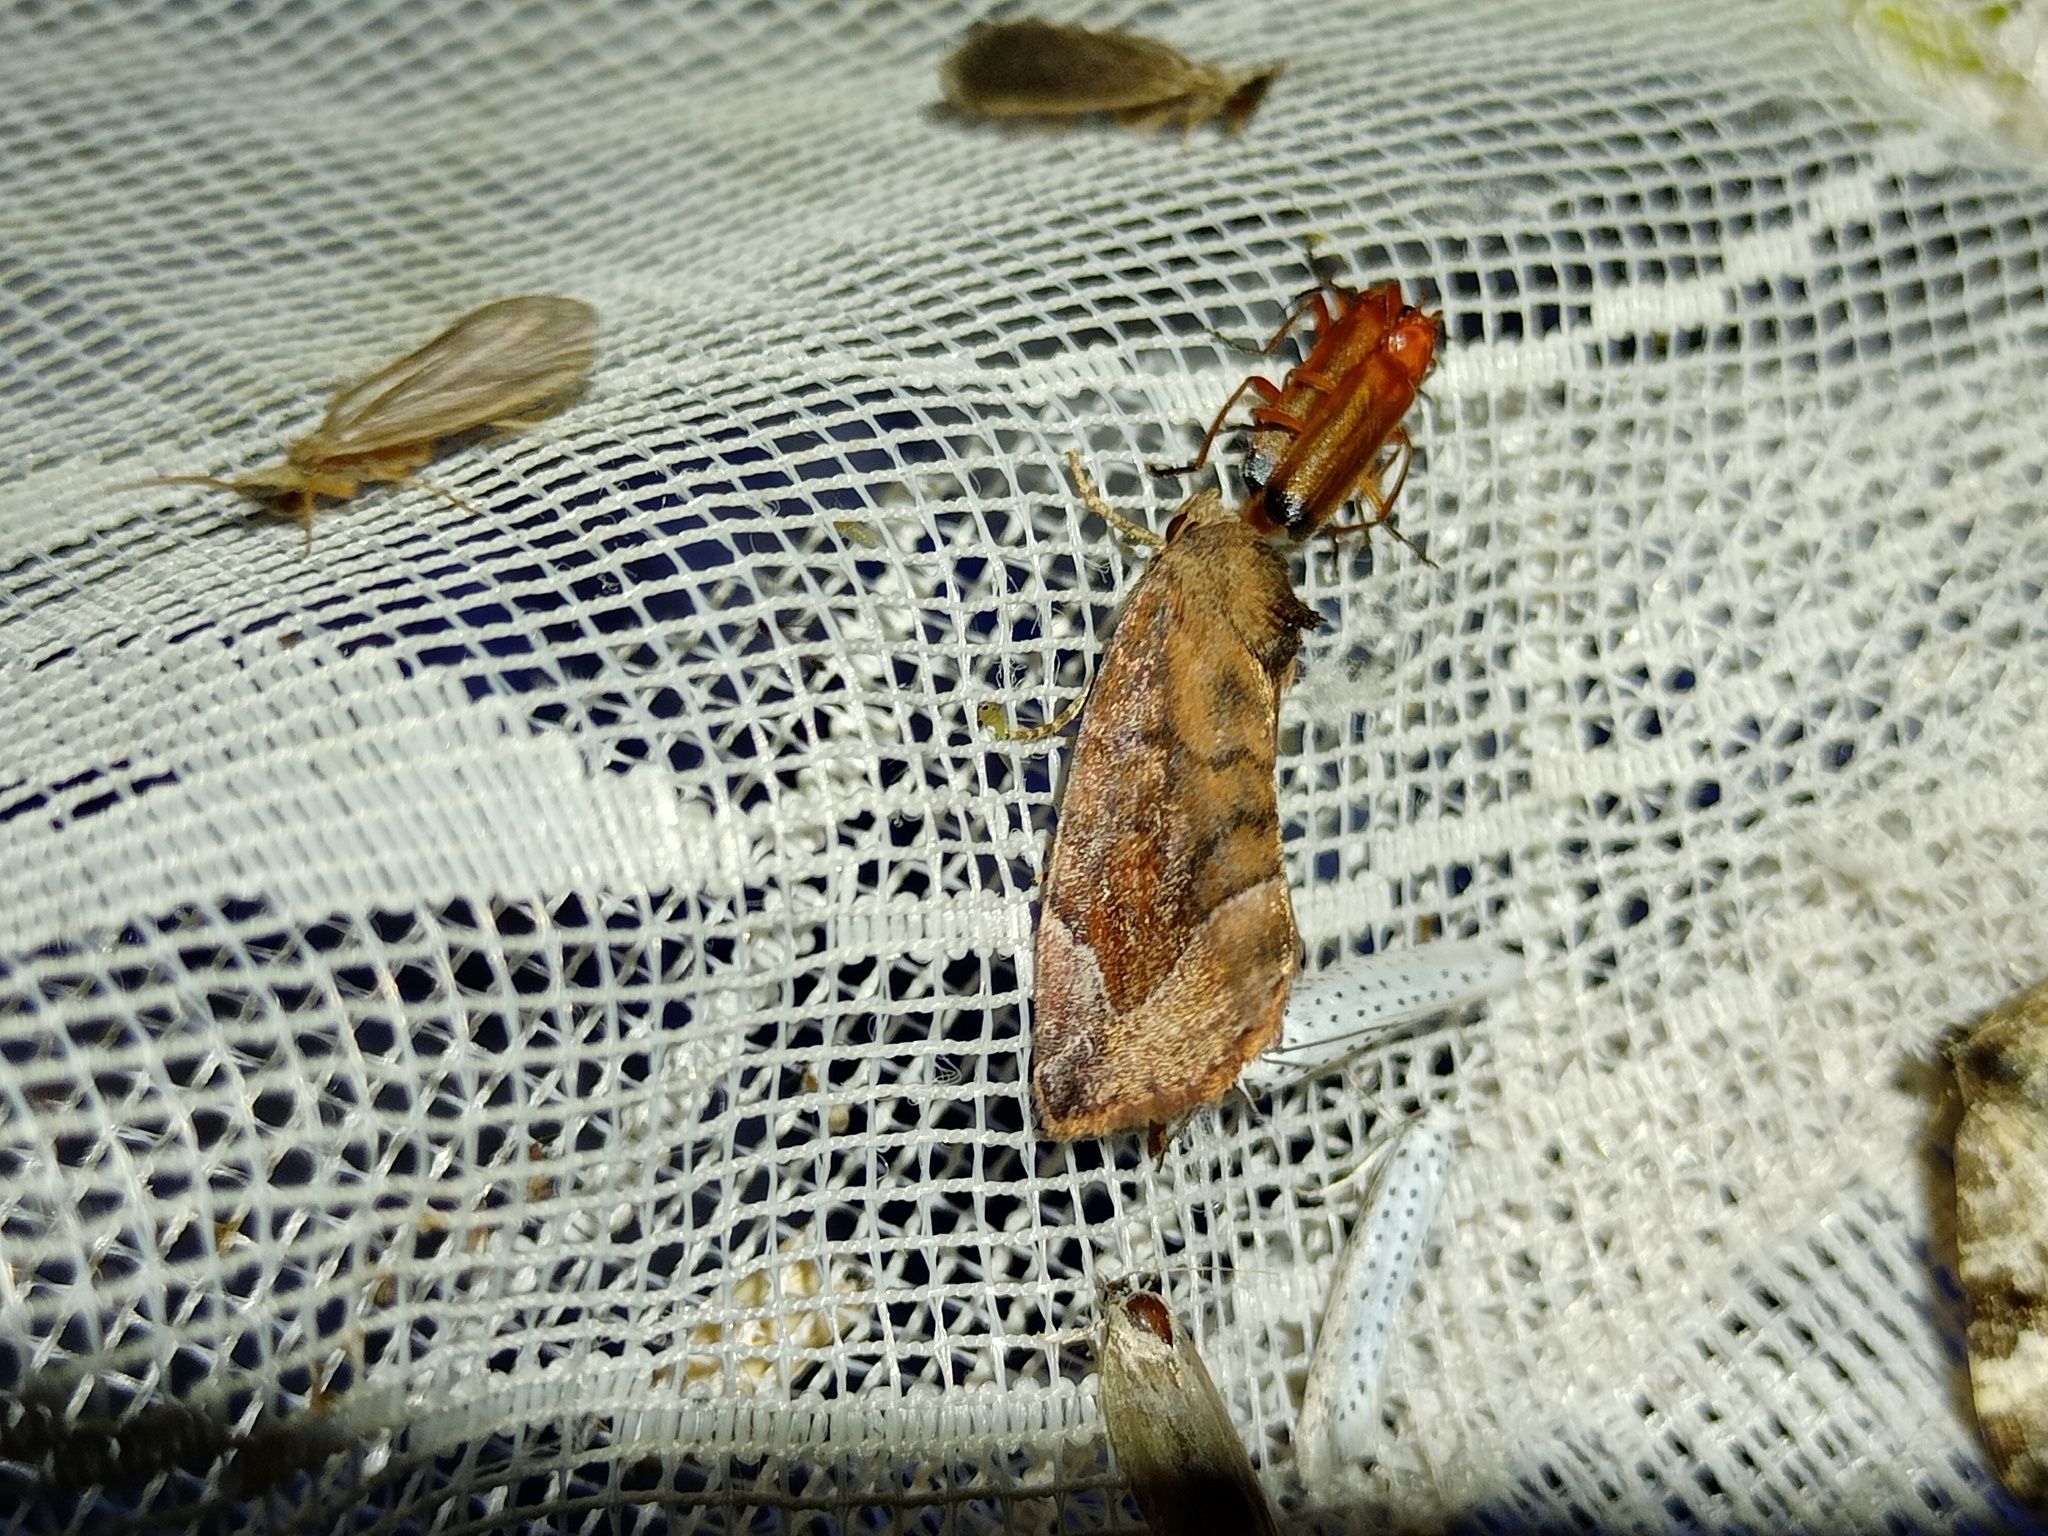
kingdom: Animalia
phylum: Arthropoda
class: Insecta
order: Lepidoptera
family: Noctuidae
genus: Cosmia
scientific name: Cosmia pyralina
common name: Lunar-spotted pinion
